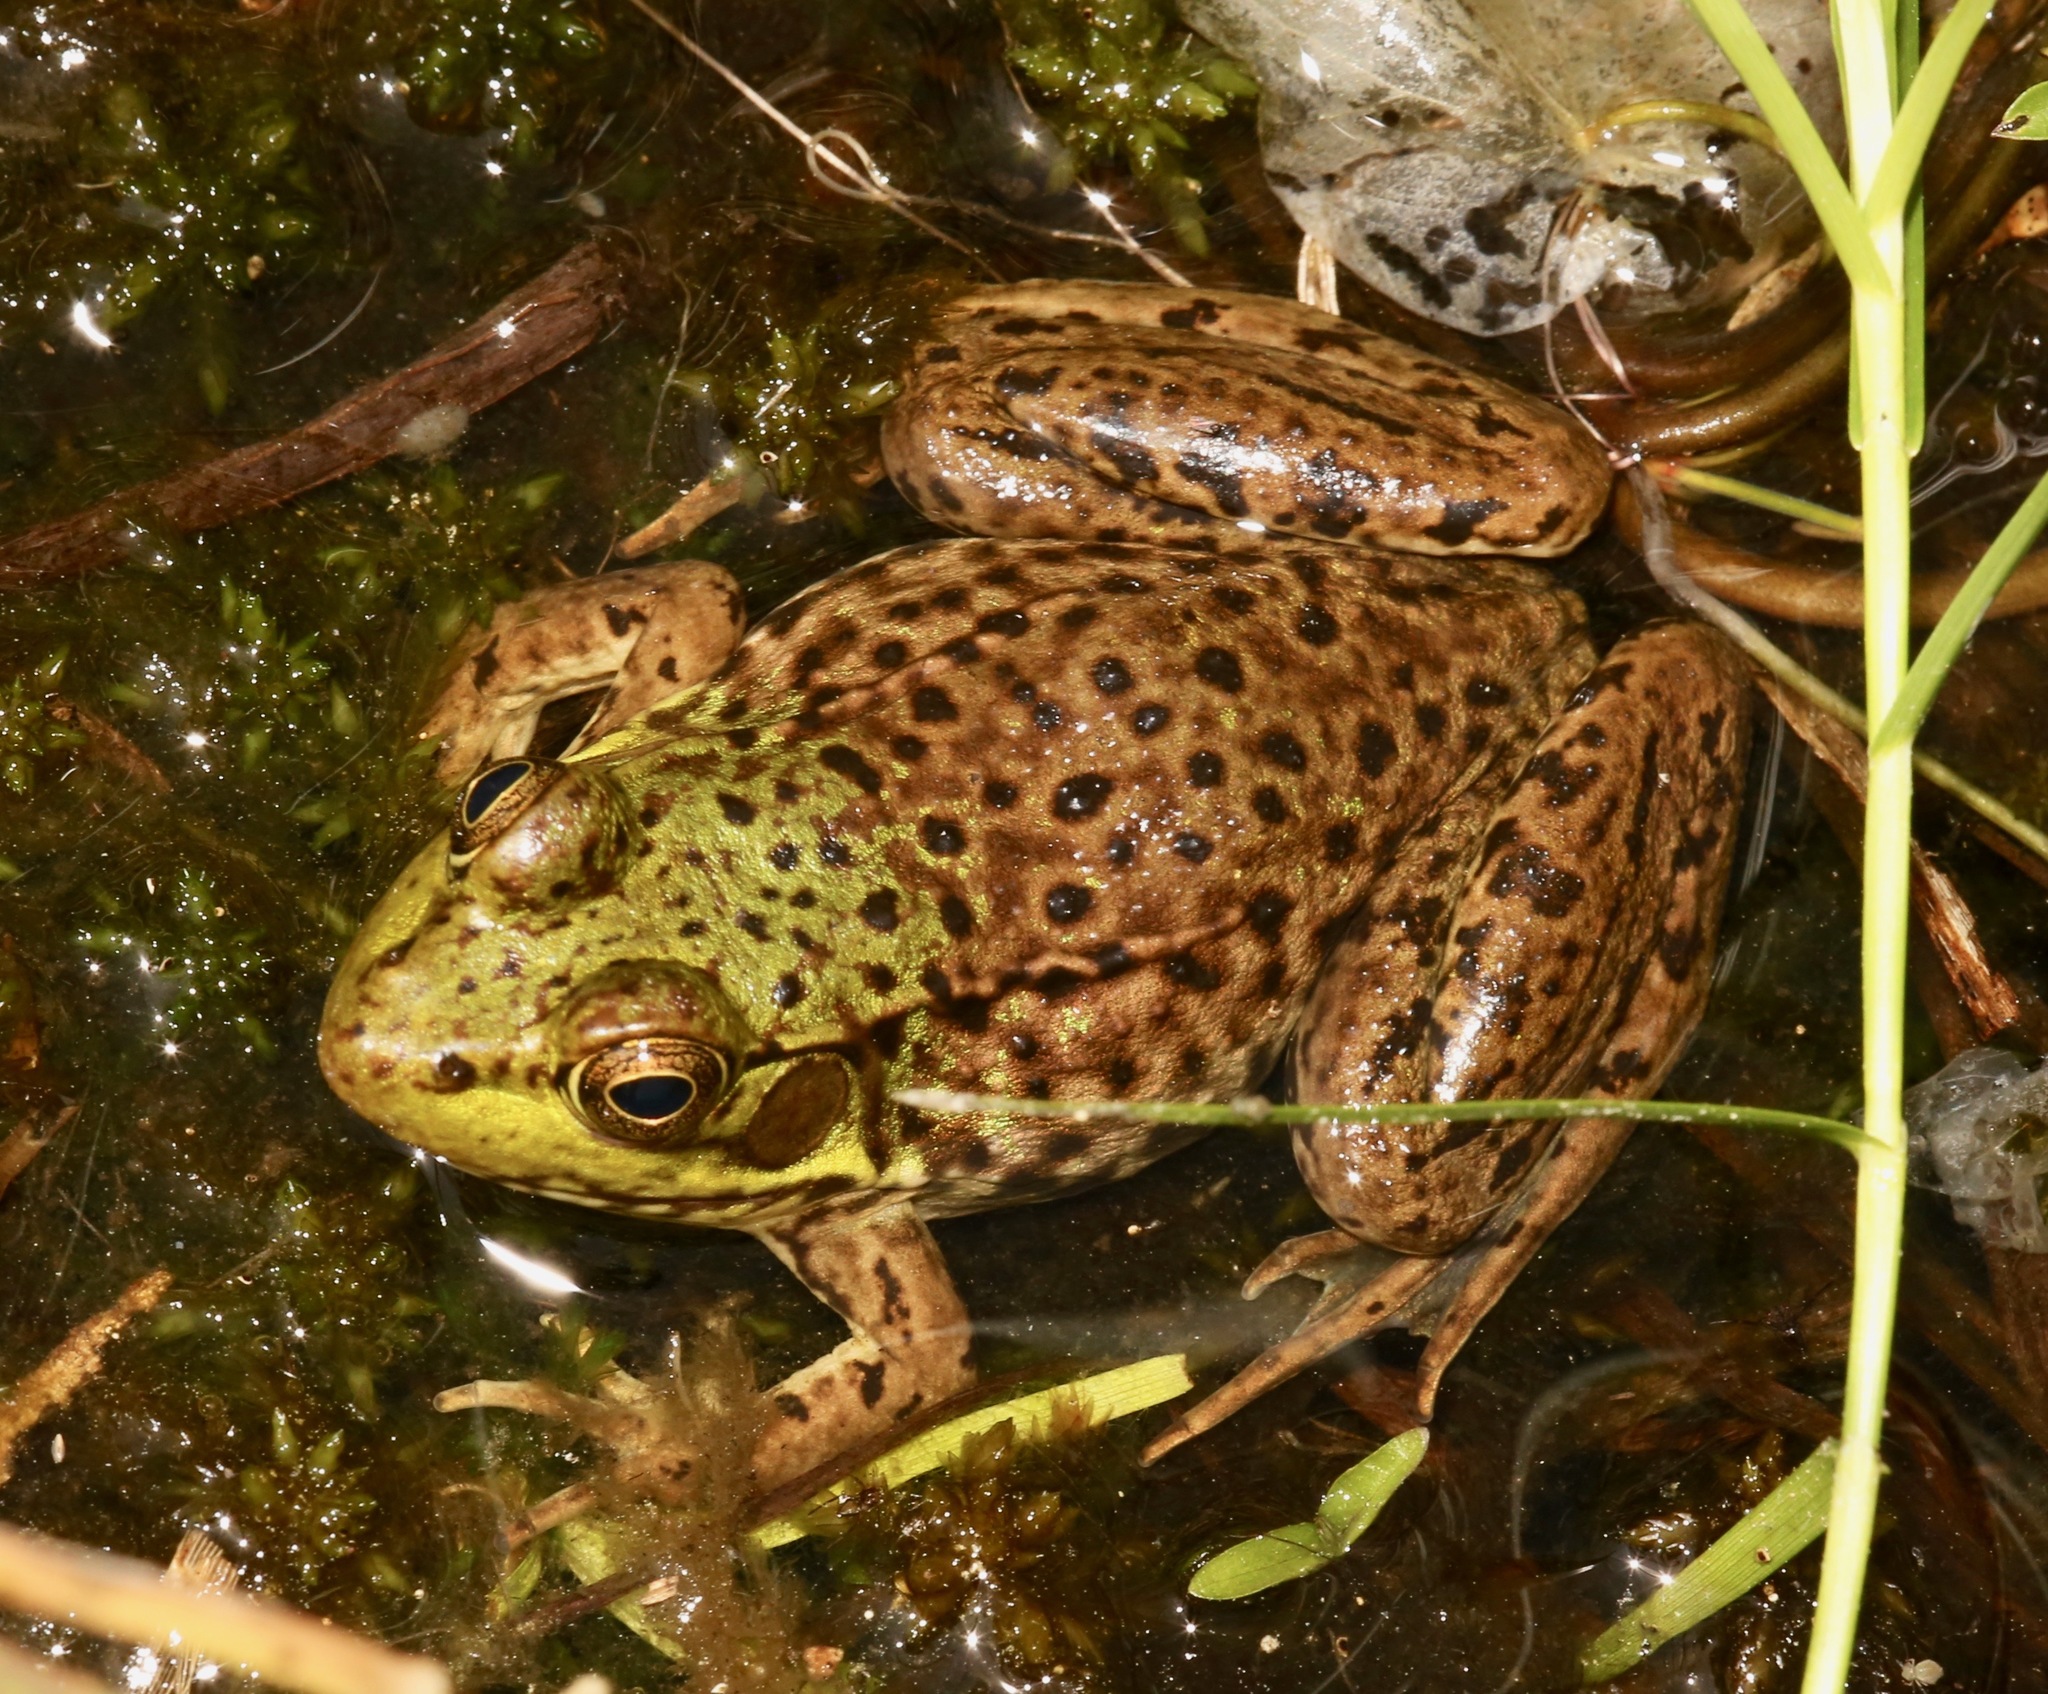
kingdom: Animalia
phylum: Chordata
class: Amphibia
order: Anura
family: Ranidae
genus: Lithobates
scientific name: Lithobates clamitans
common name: Green frog
